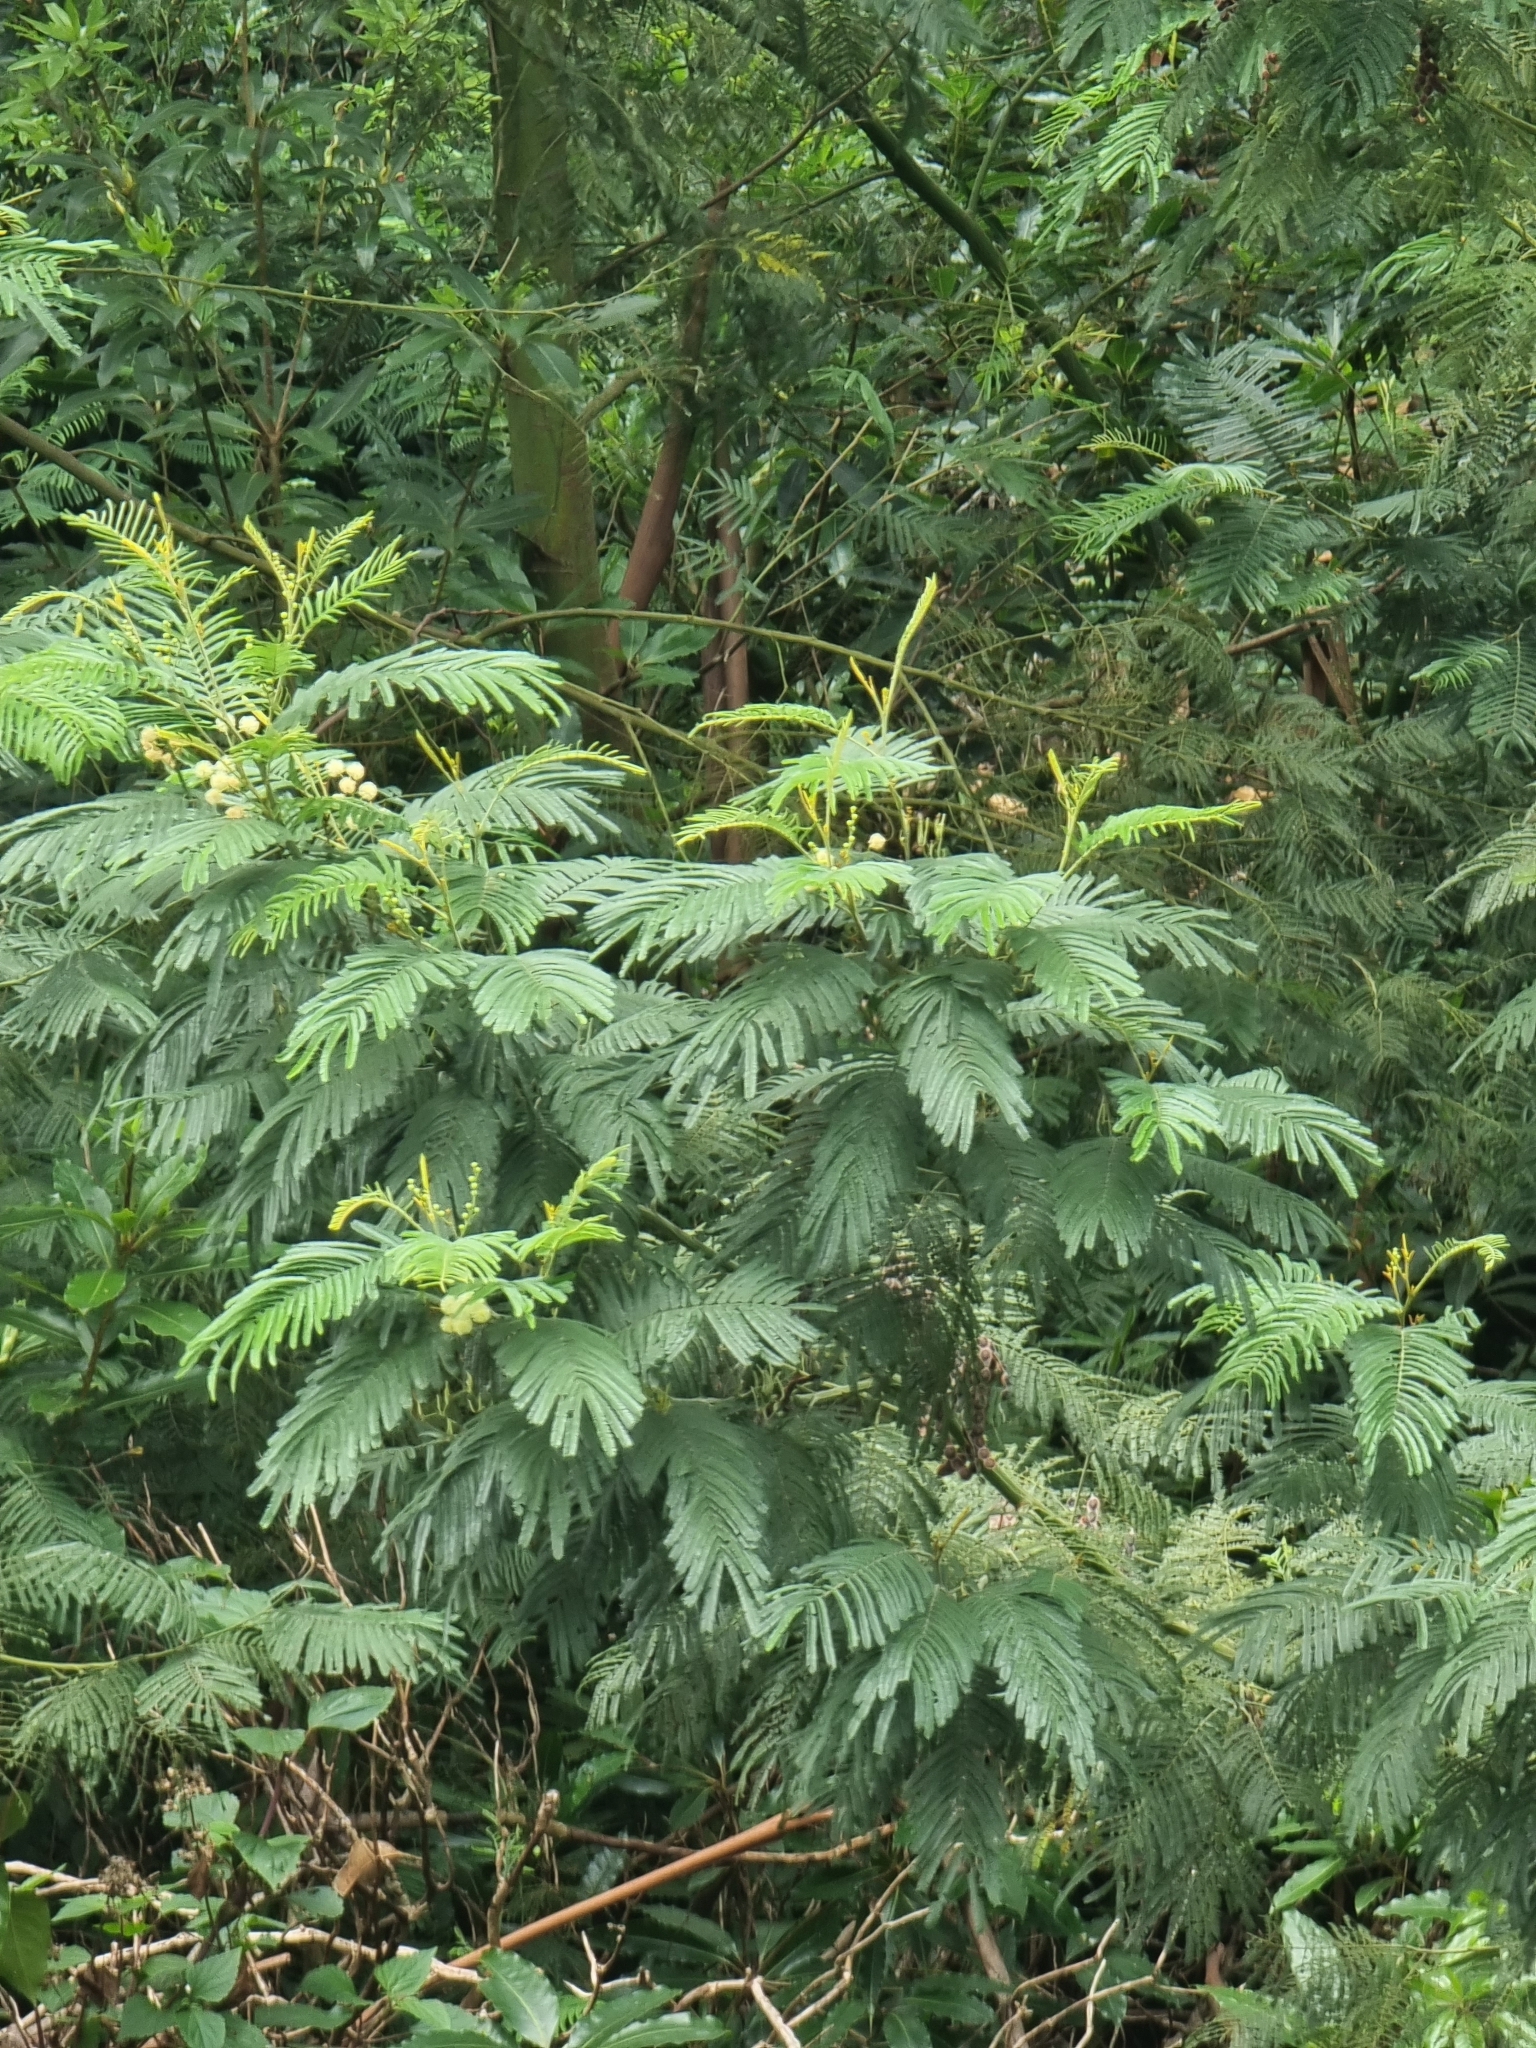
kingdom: Plantae
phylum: Tracheophyta
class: Magnoliopsida
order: Fabales
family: Fabaceae
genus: Acacia
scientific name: Acacia mearnsii
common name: Black wattle
